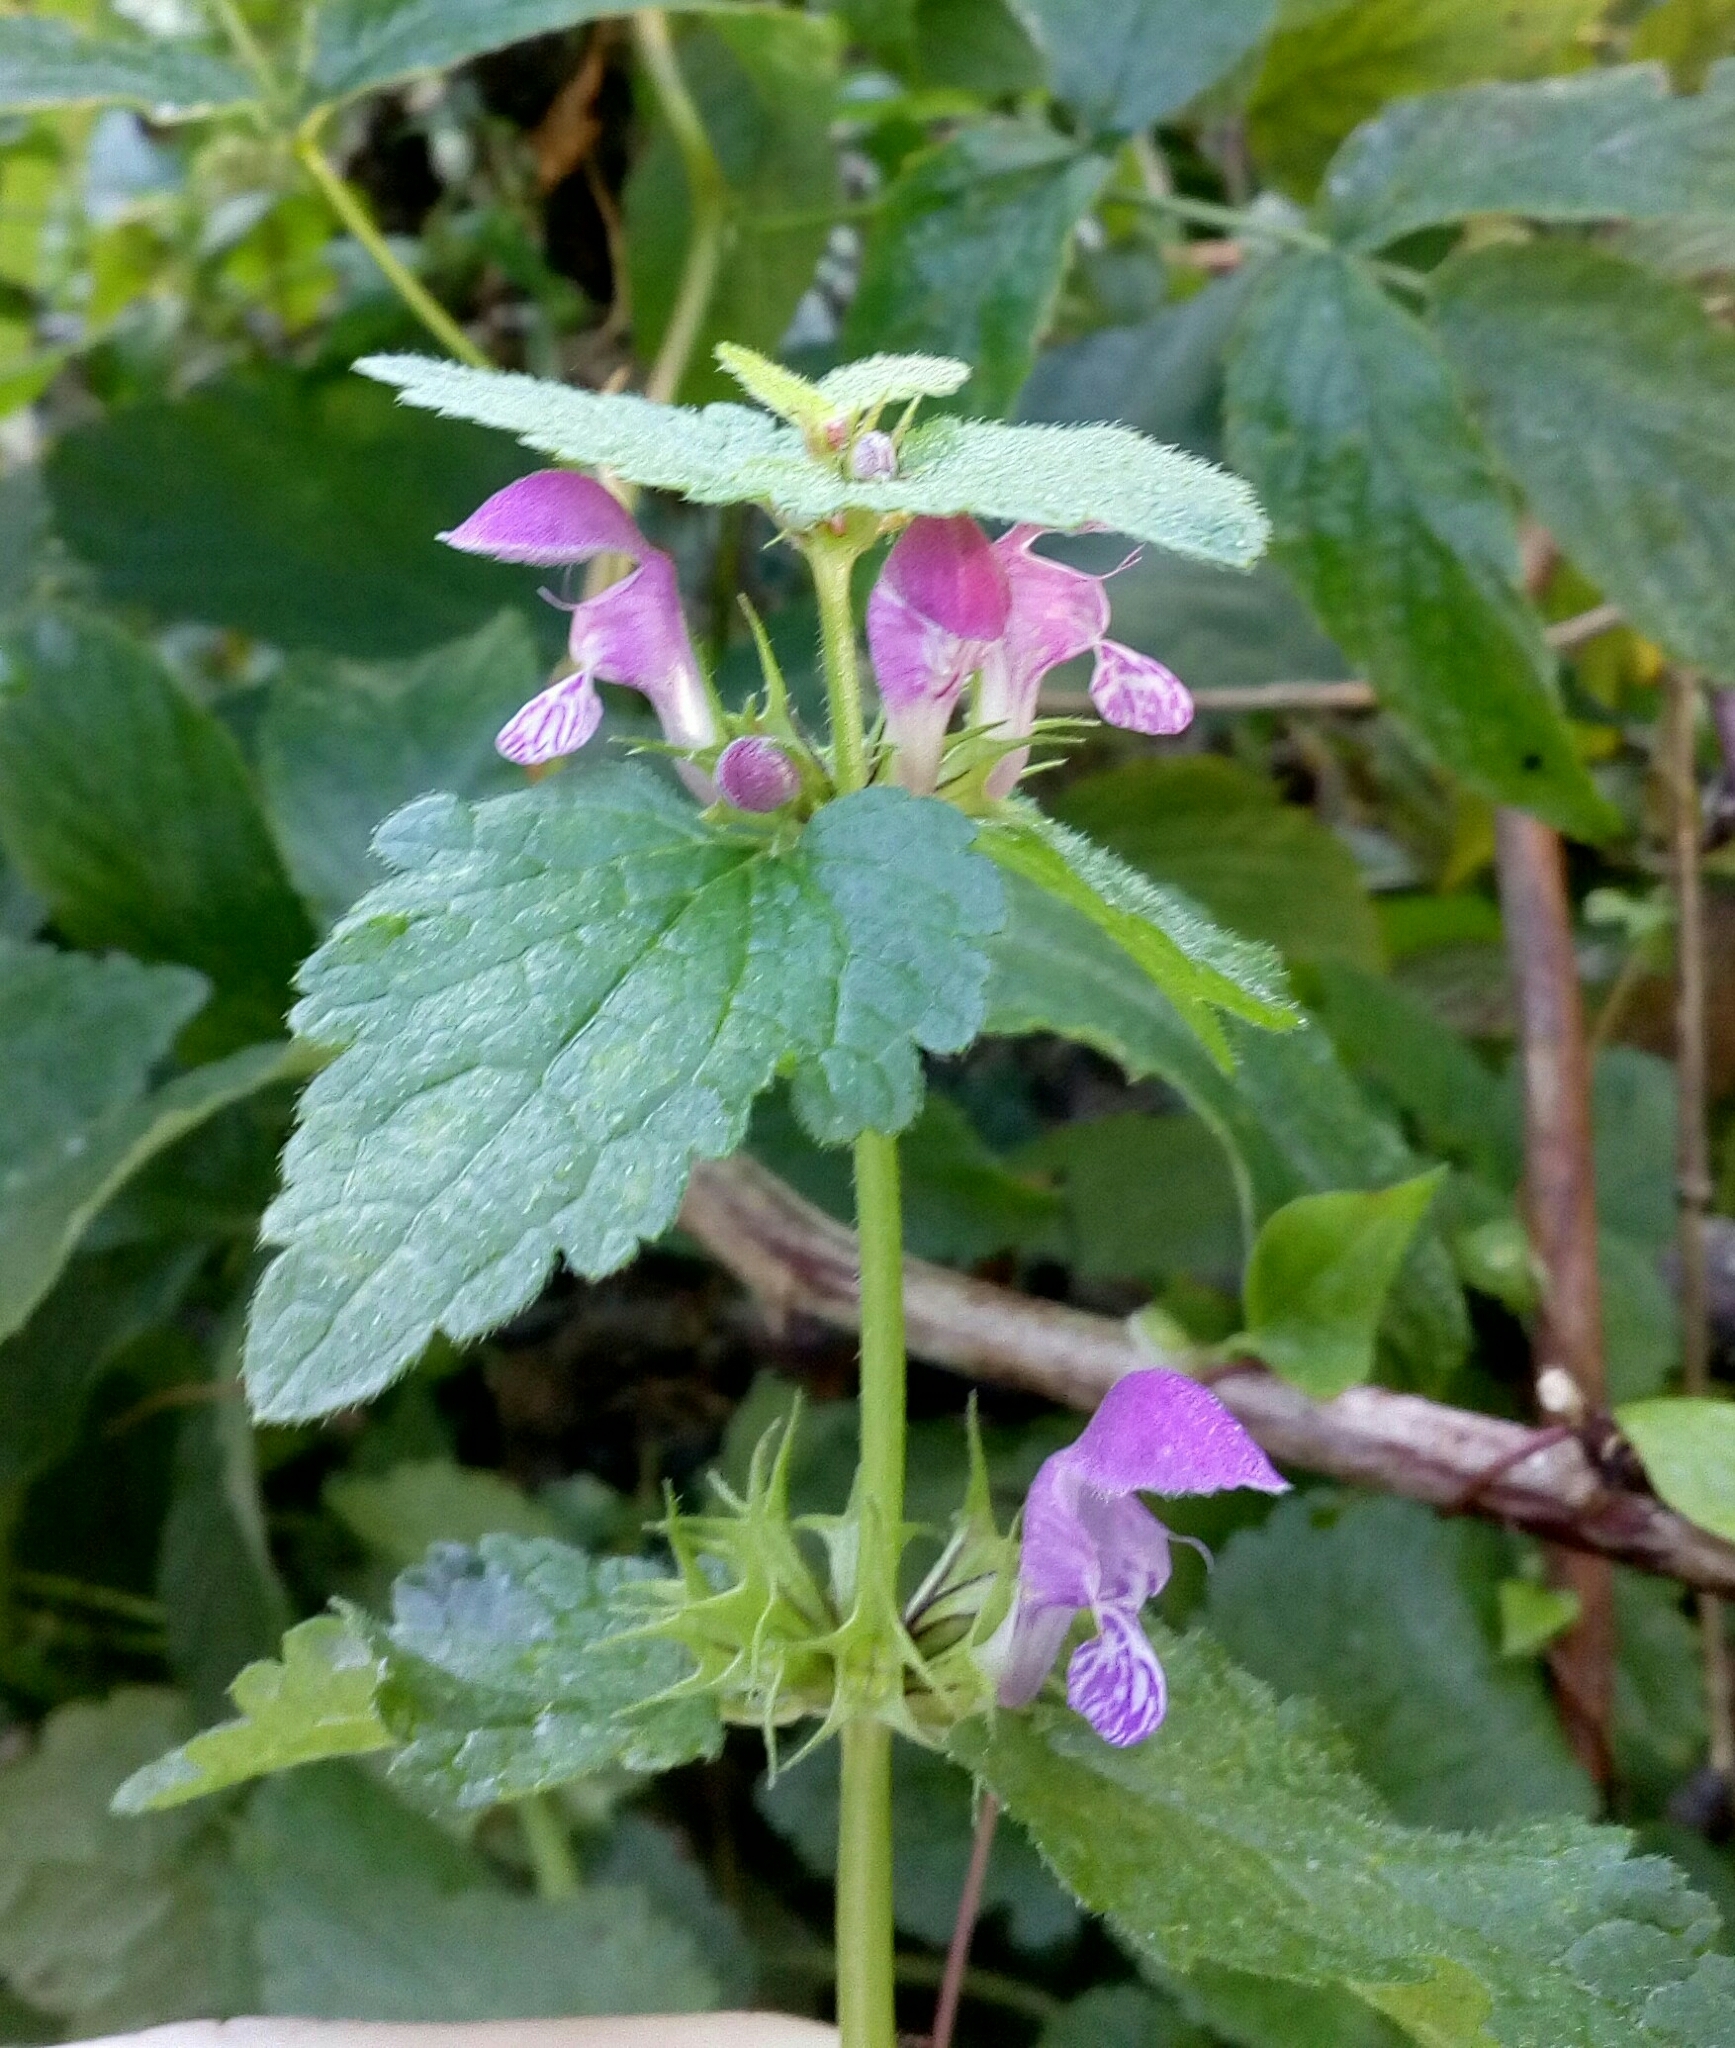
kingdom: Plantae
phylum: Tracheophyta
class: Magnoliopsida
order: Lamiales
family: Lamiaceae
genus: Lamium
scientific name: Lamium maculatum
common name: Spotted dead-nettle
